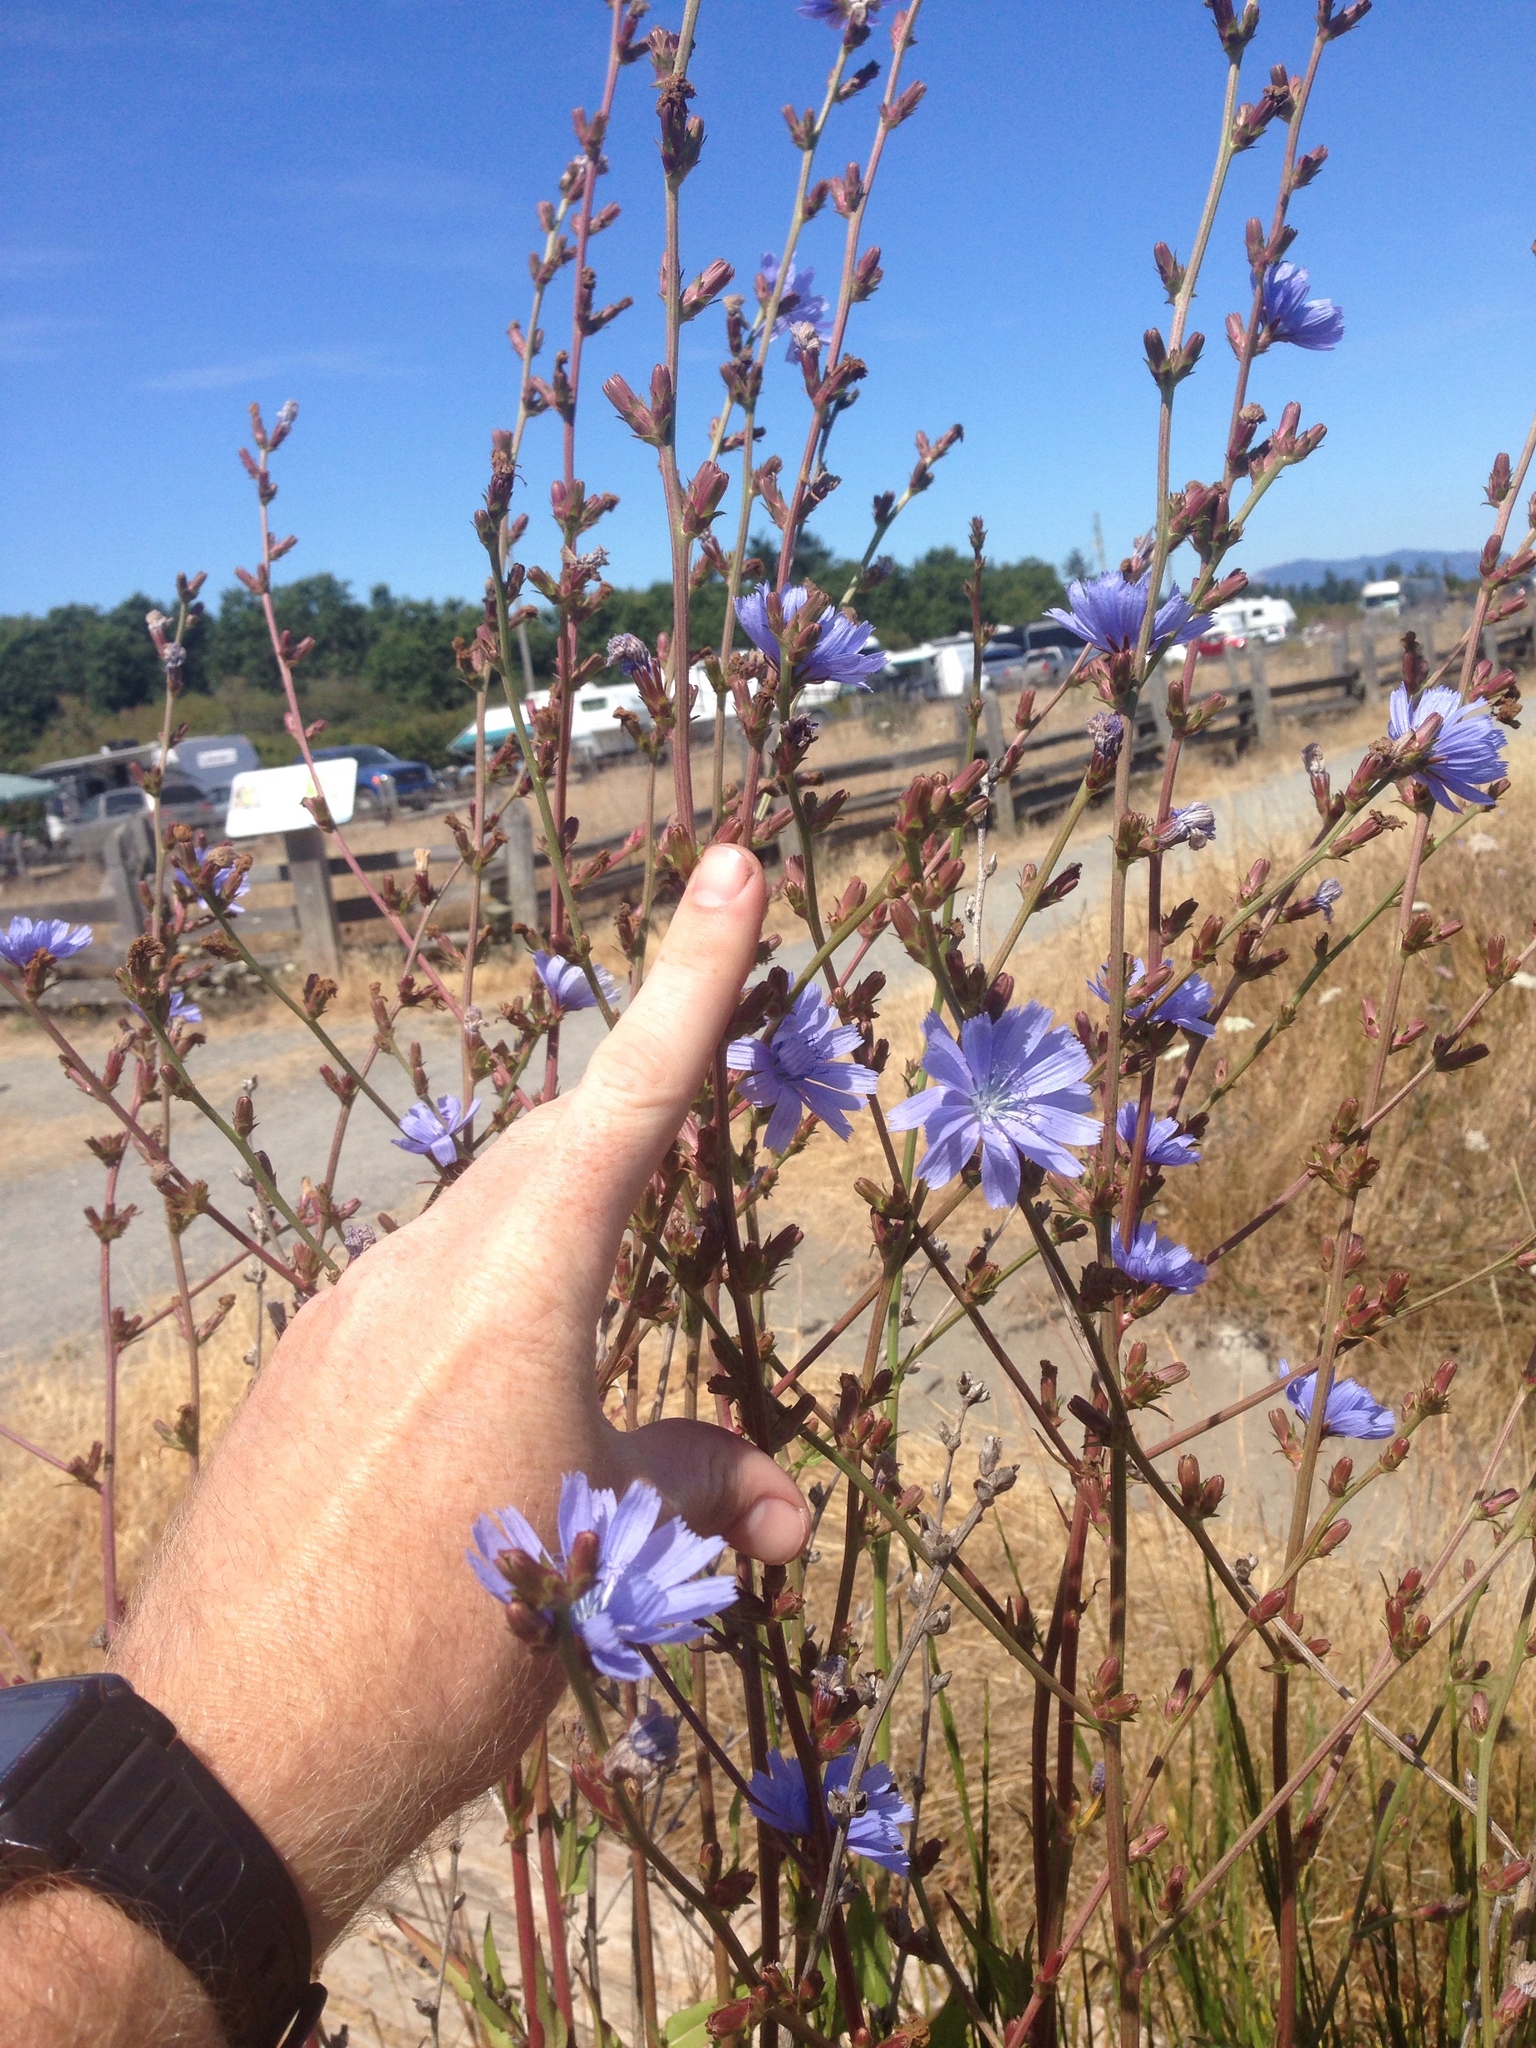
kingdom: Plantae
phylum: Tracheophyta
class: Magnoliopsida
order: Asterales
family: Asteraceae
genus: Cichorium
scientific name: Cichorium intybus
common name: Chicory
